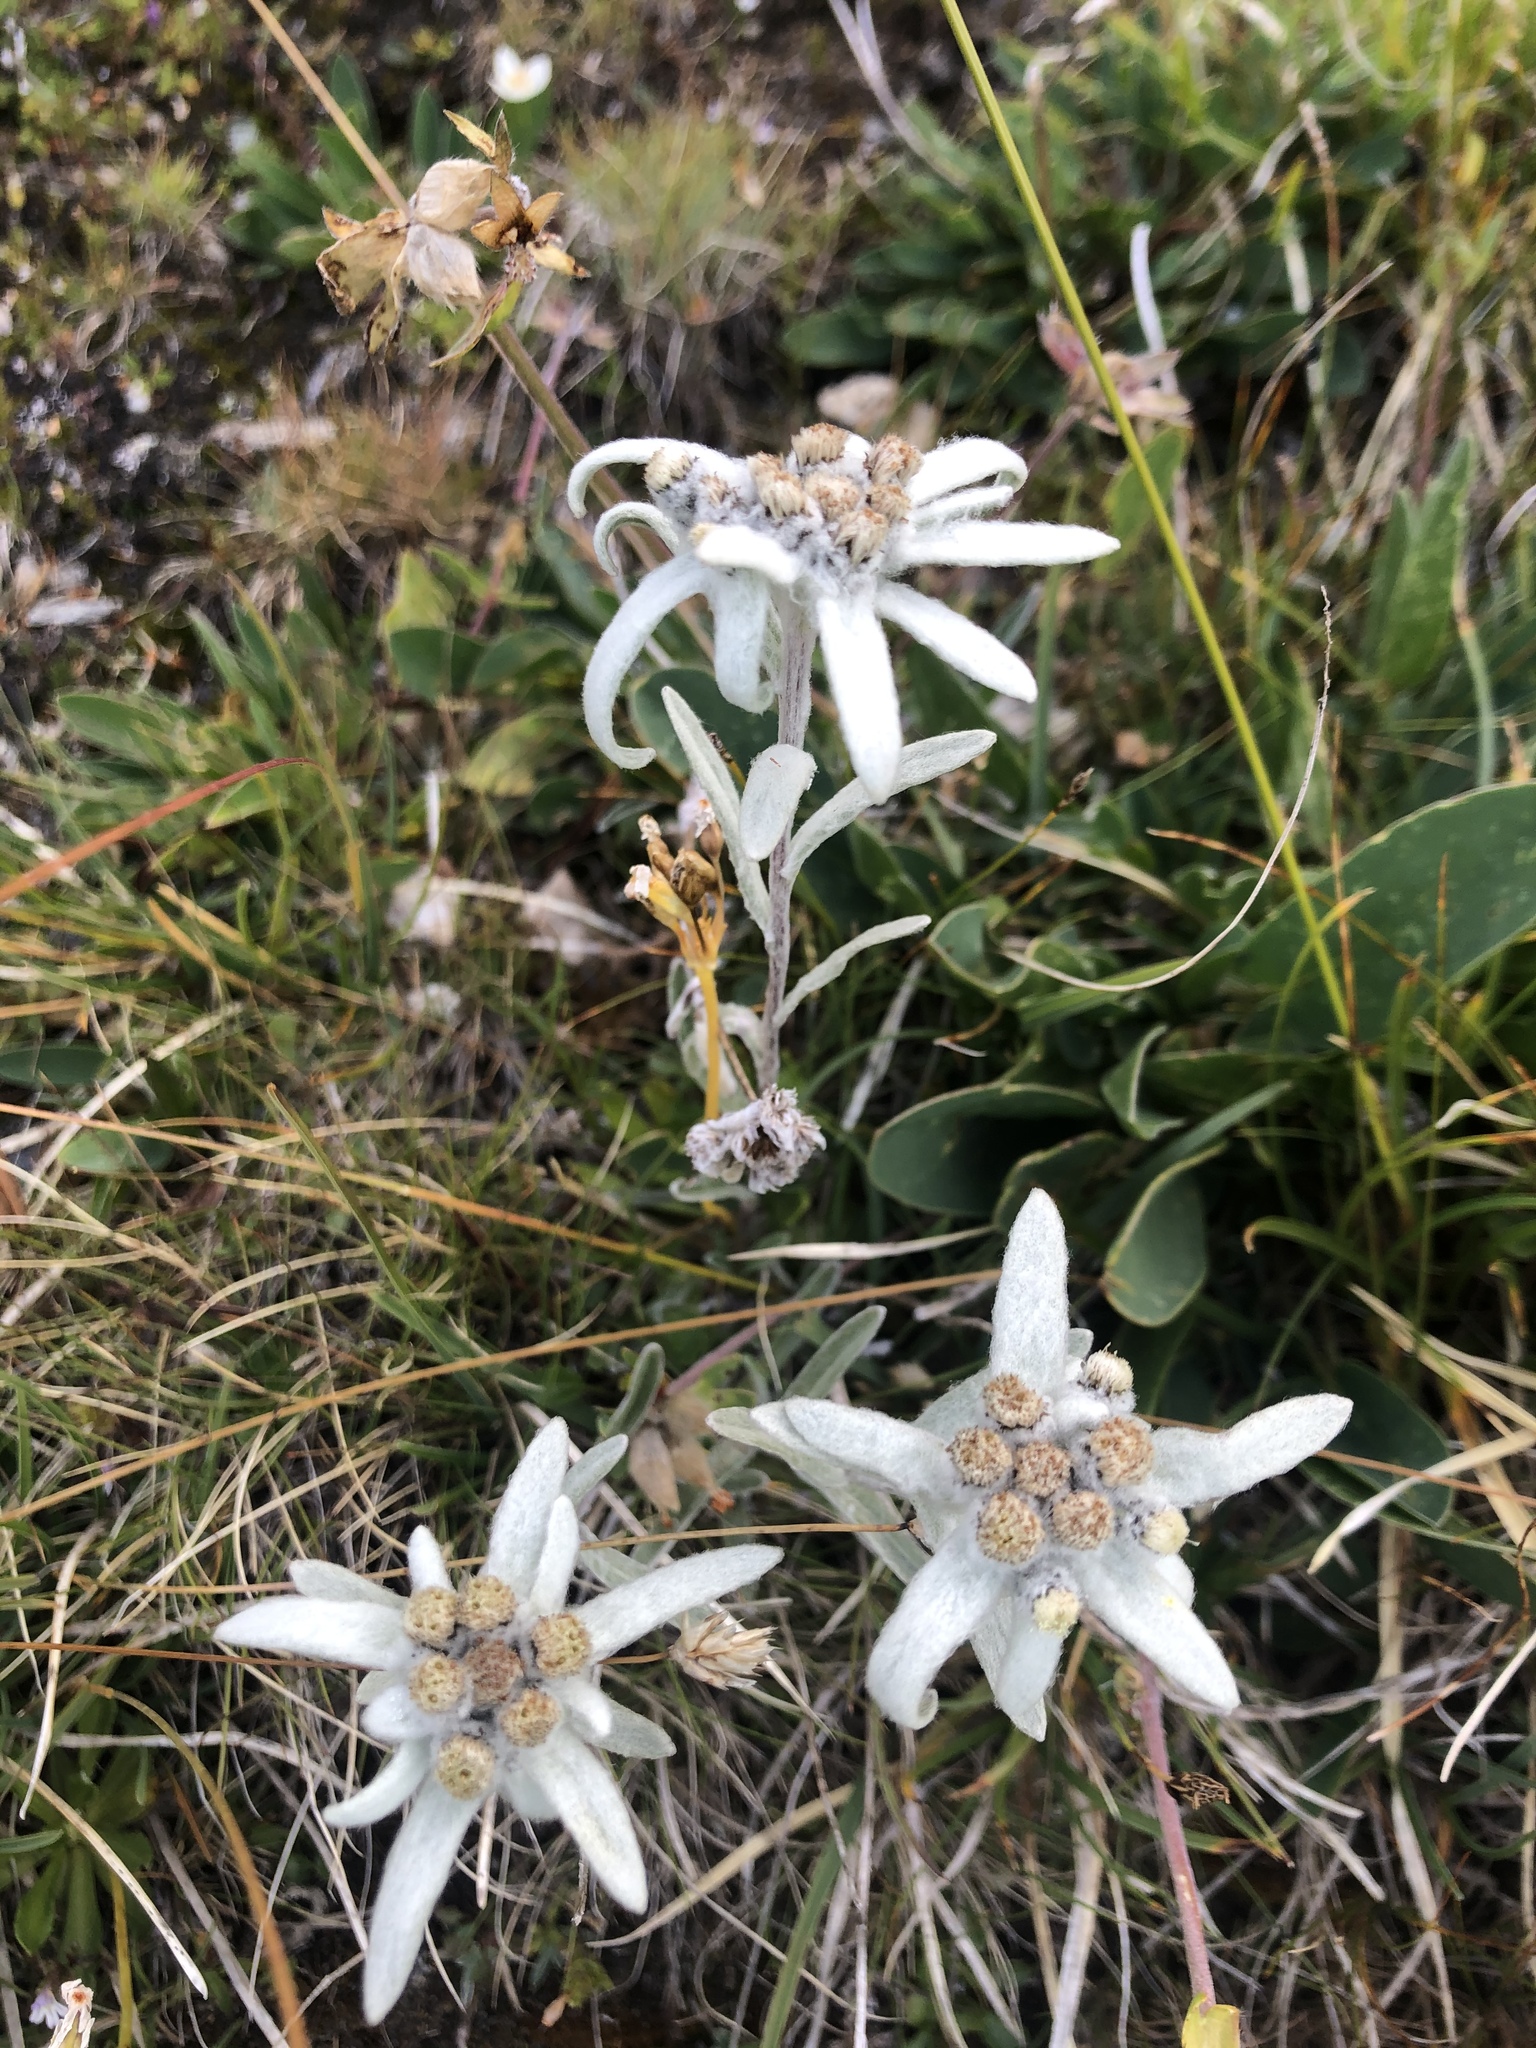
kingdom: Plantae
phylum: Tracheophyta
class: Magnoliopsida
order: Asterales
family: Asteraceae
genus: Leontopodium
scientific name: Leontopodium nivale
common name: Edelweiss
